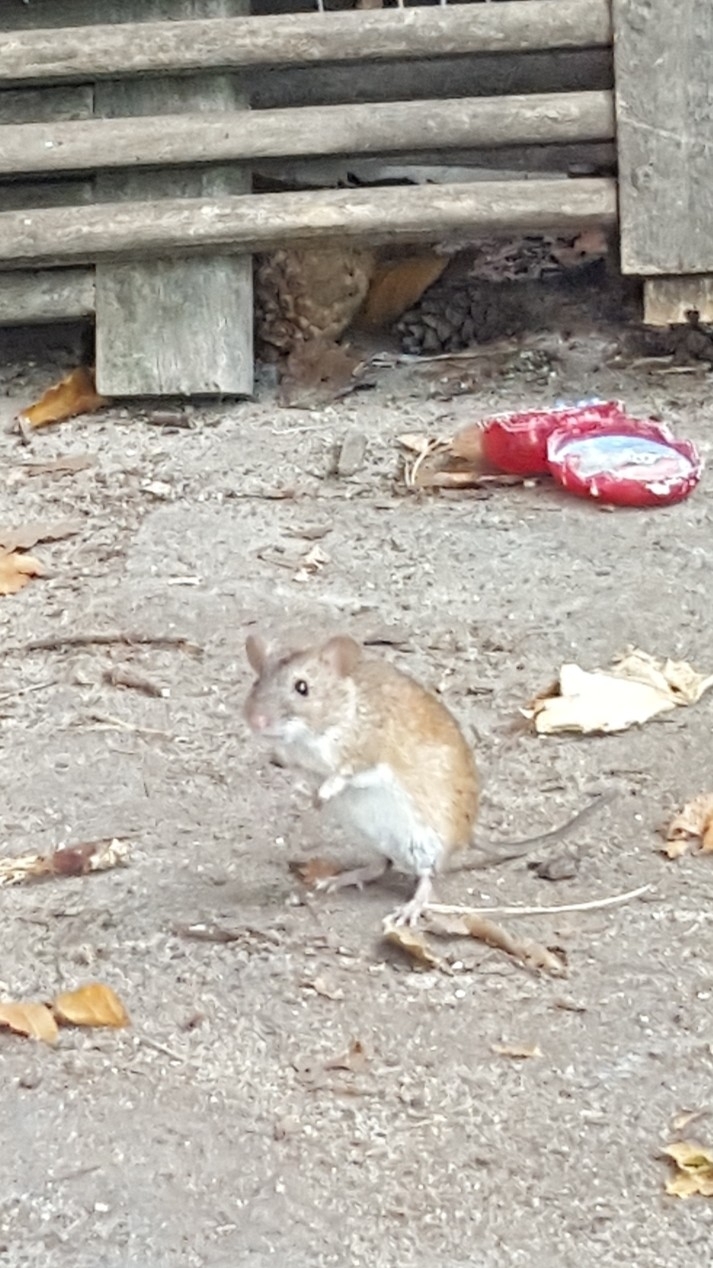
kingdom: Animalia
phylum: Chordata
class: Mammalia
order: Rodentia
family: Muridae
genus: Apodemus
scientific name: Apodemus agrarius
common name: Striped field mouse
